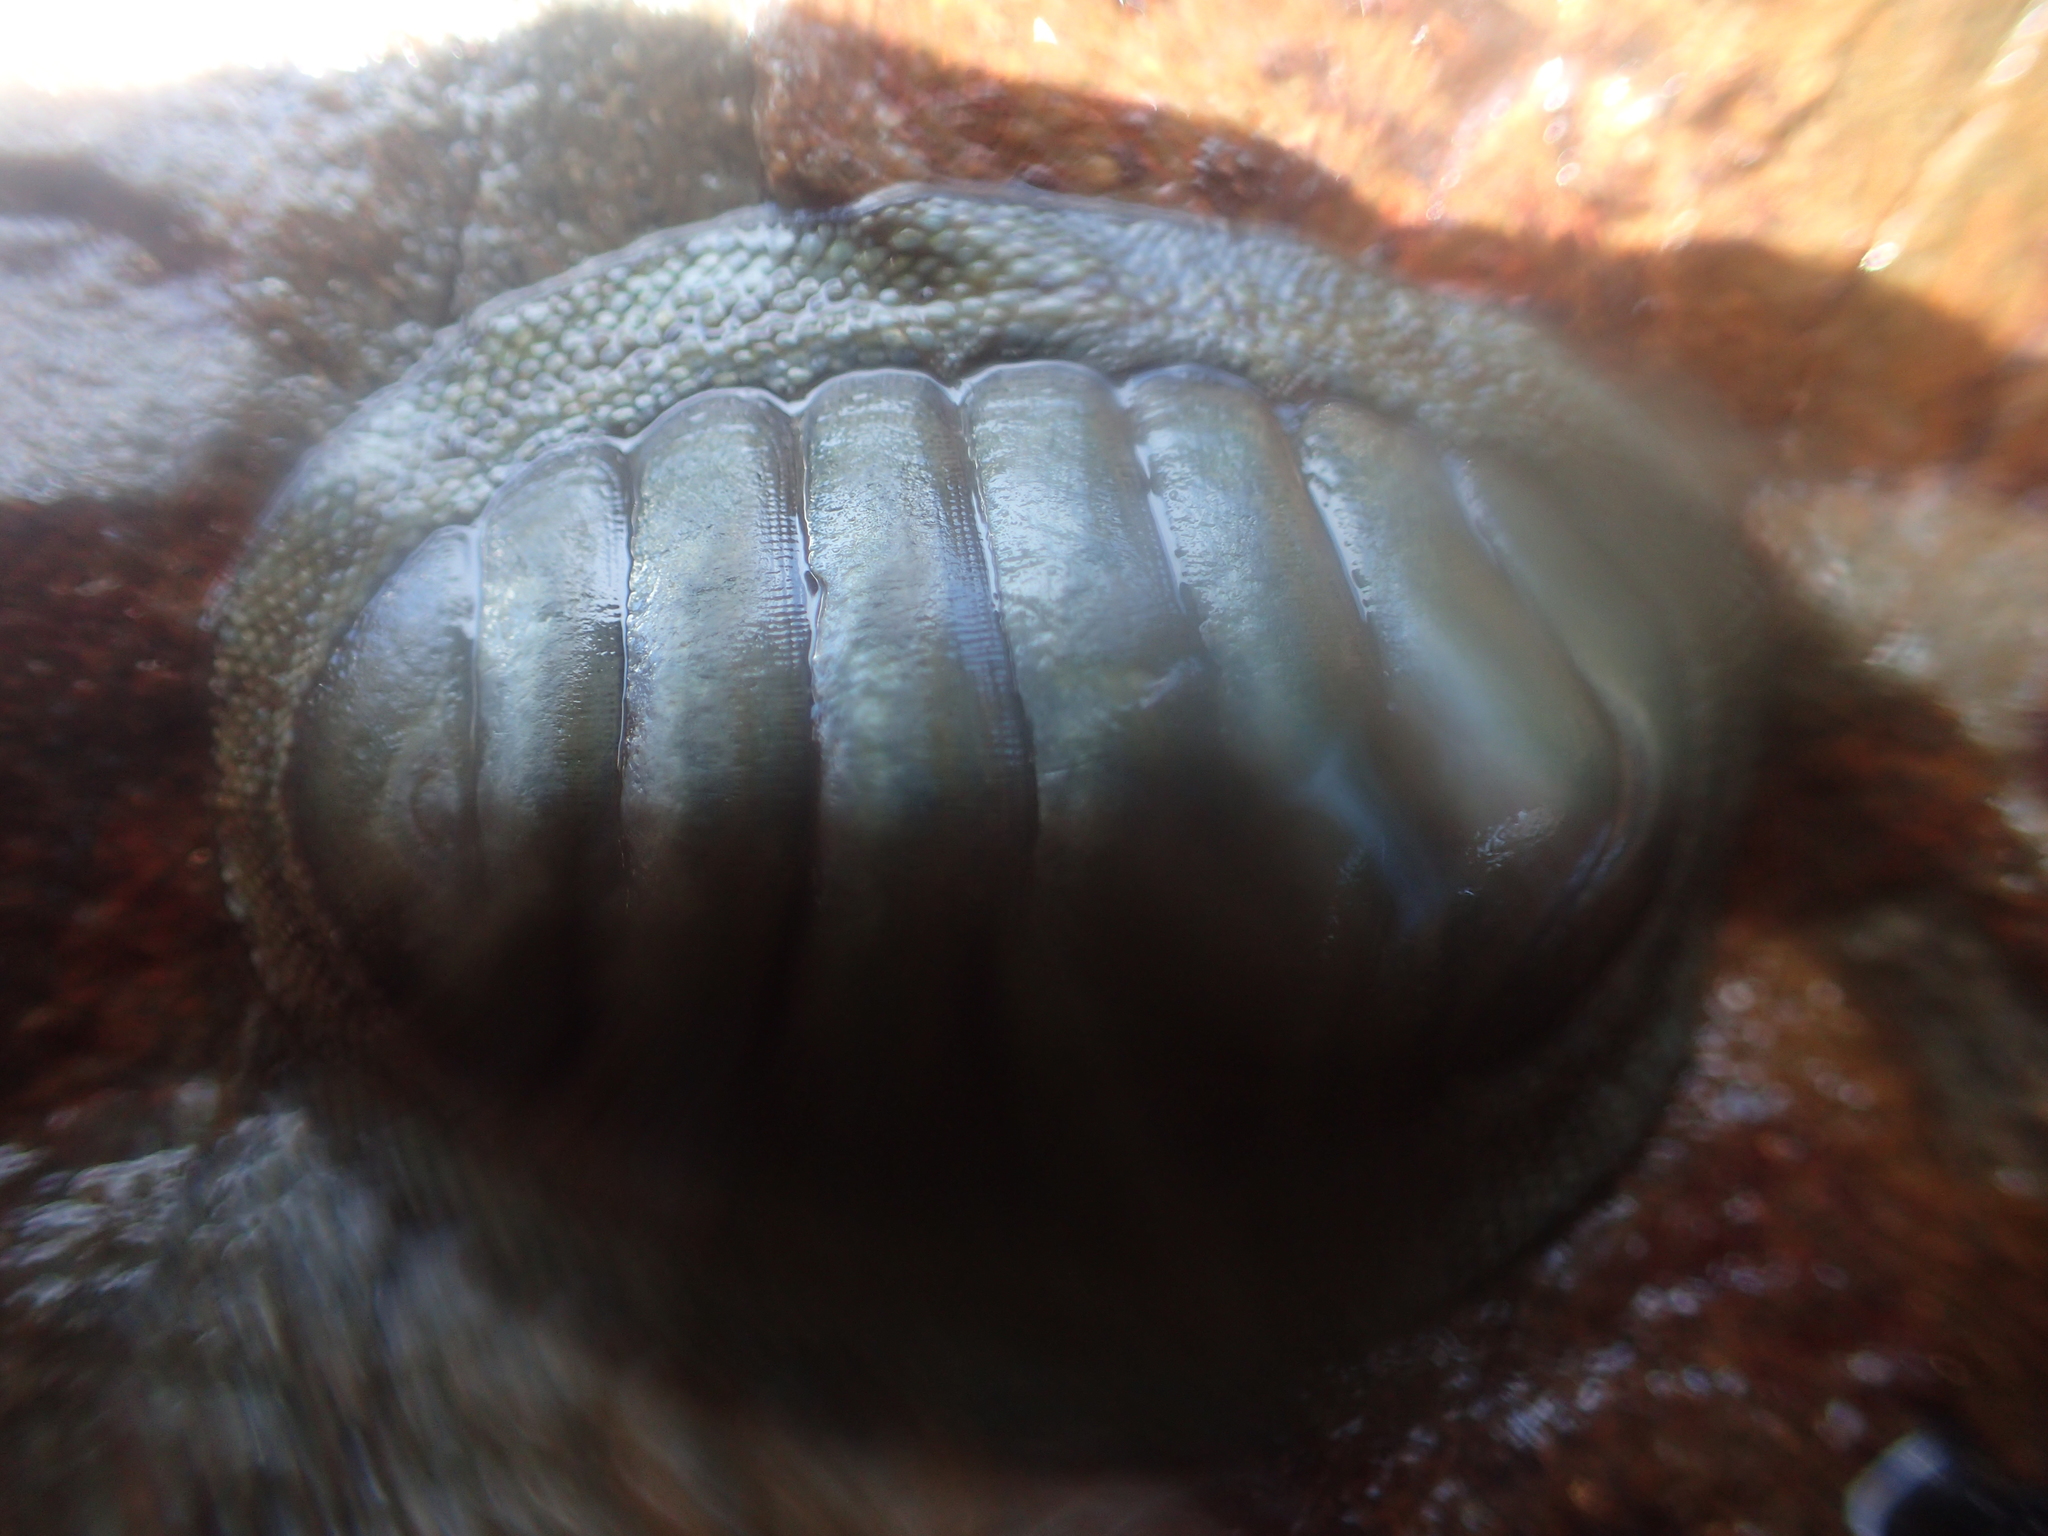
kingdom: Animalia
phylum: Mollusca
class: Polyplacophora
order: Chitonida
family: Chitonidae
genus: Chiton
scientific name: Chiton glaucus
